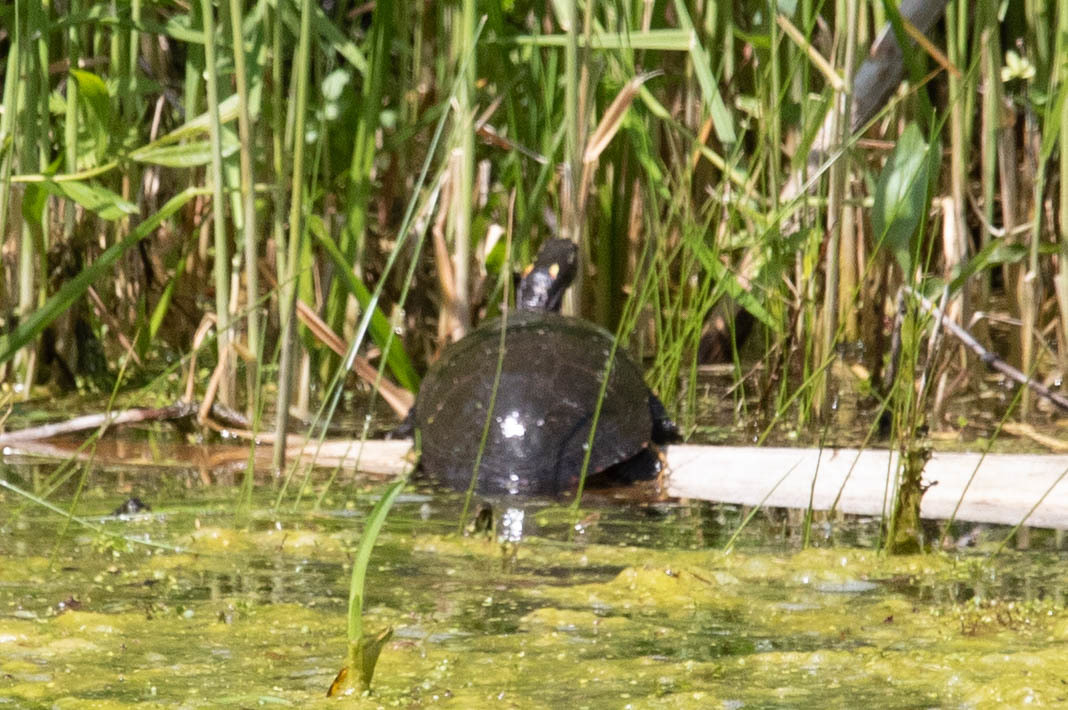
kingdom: Animalia
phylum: Chordata
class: Testudines
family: Emydidae
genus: Chrysemys
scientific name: Chrysemys picta
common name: Painted turtle
